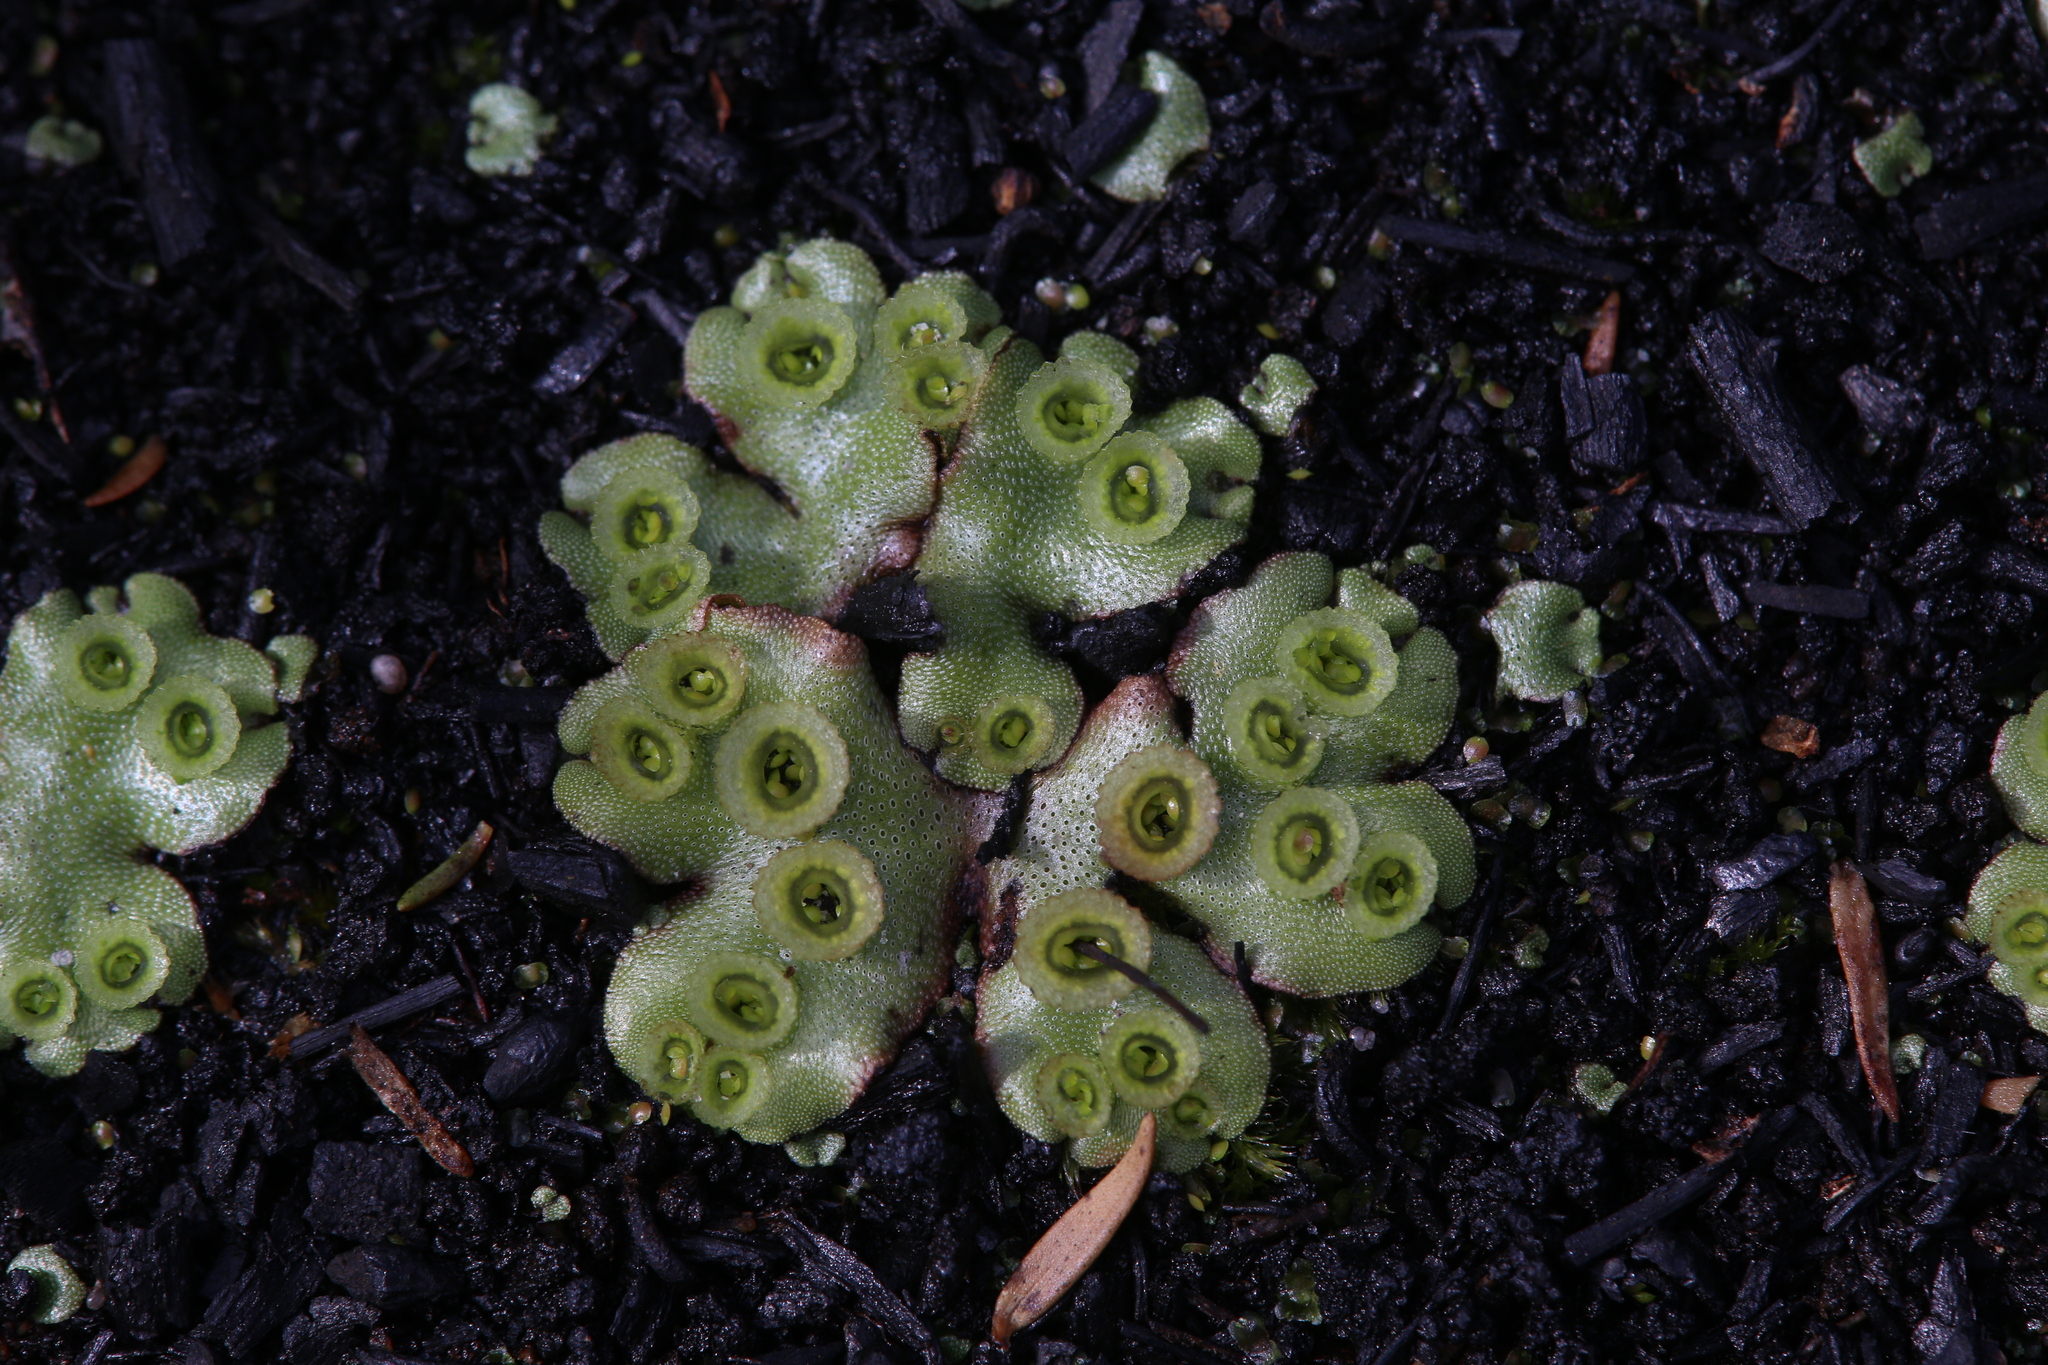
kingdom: Plantae
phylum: Marchantiophyta
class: Marchantiopsida
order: Marchantiales
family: Marchantiaceae
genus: Marchantia
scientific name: Marchantia berteroana
